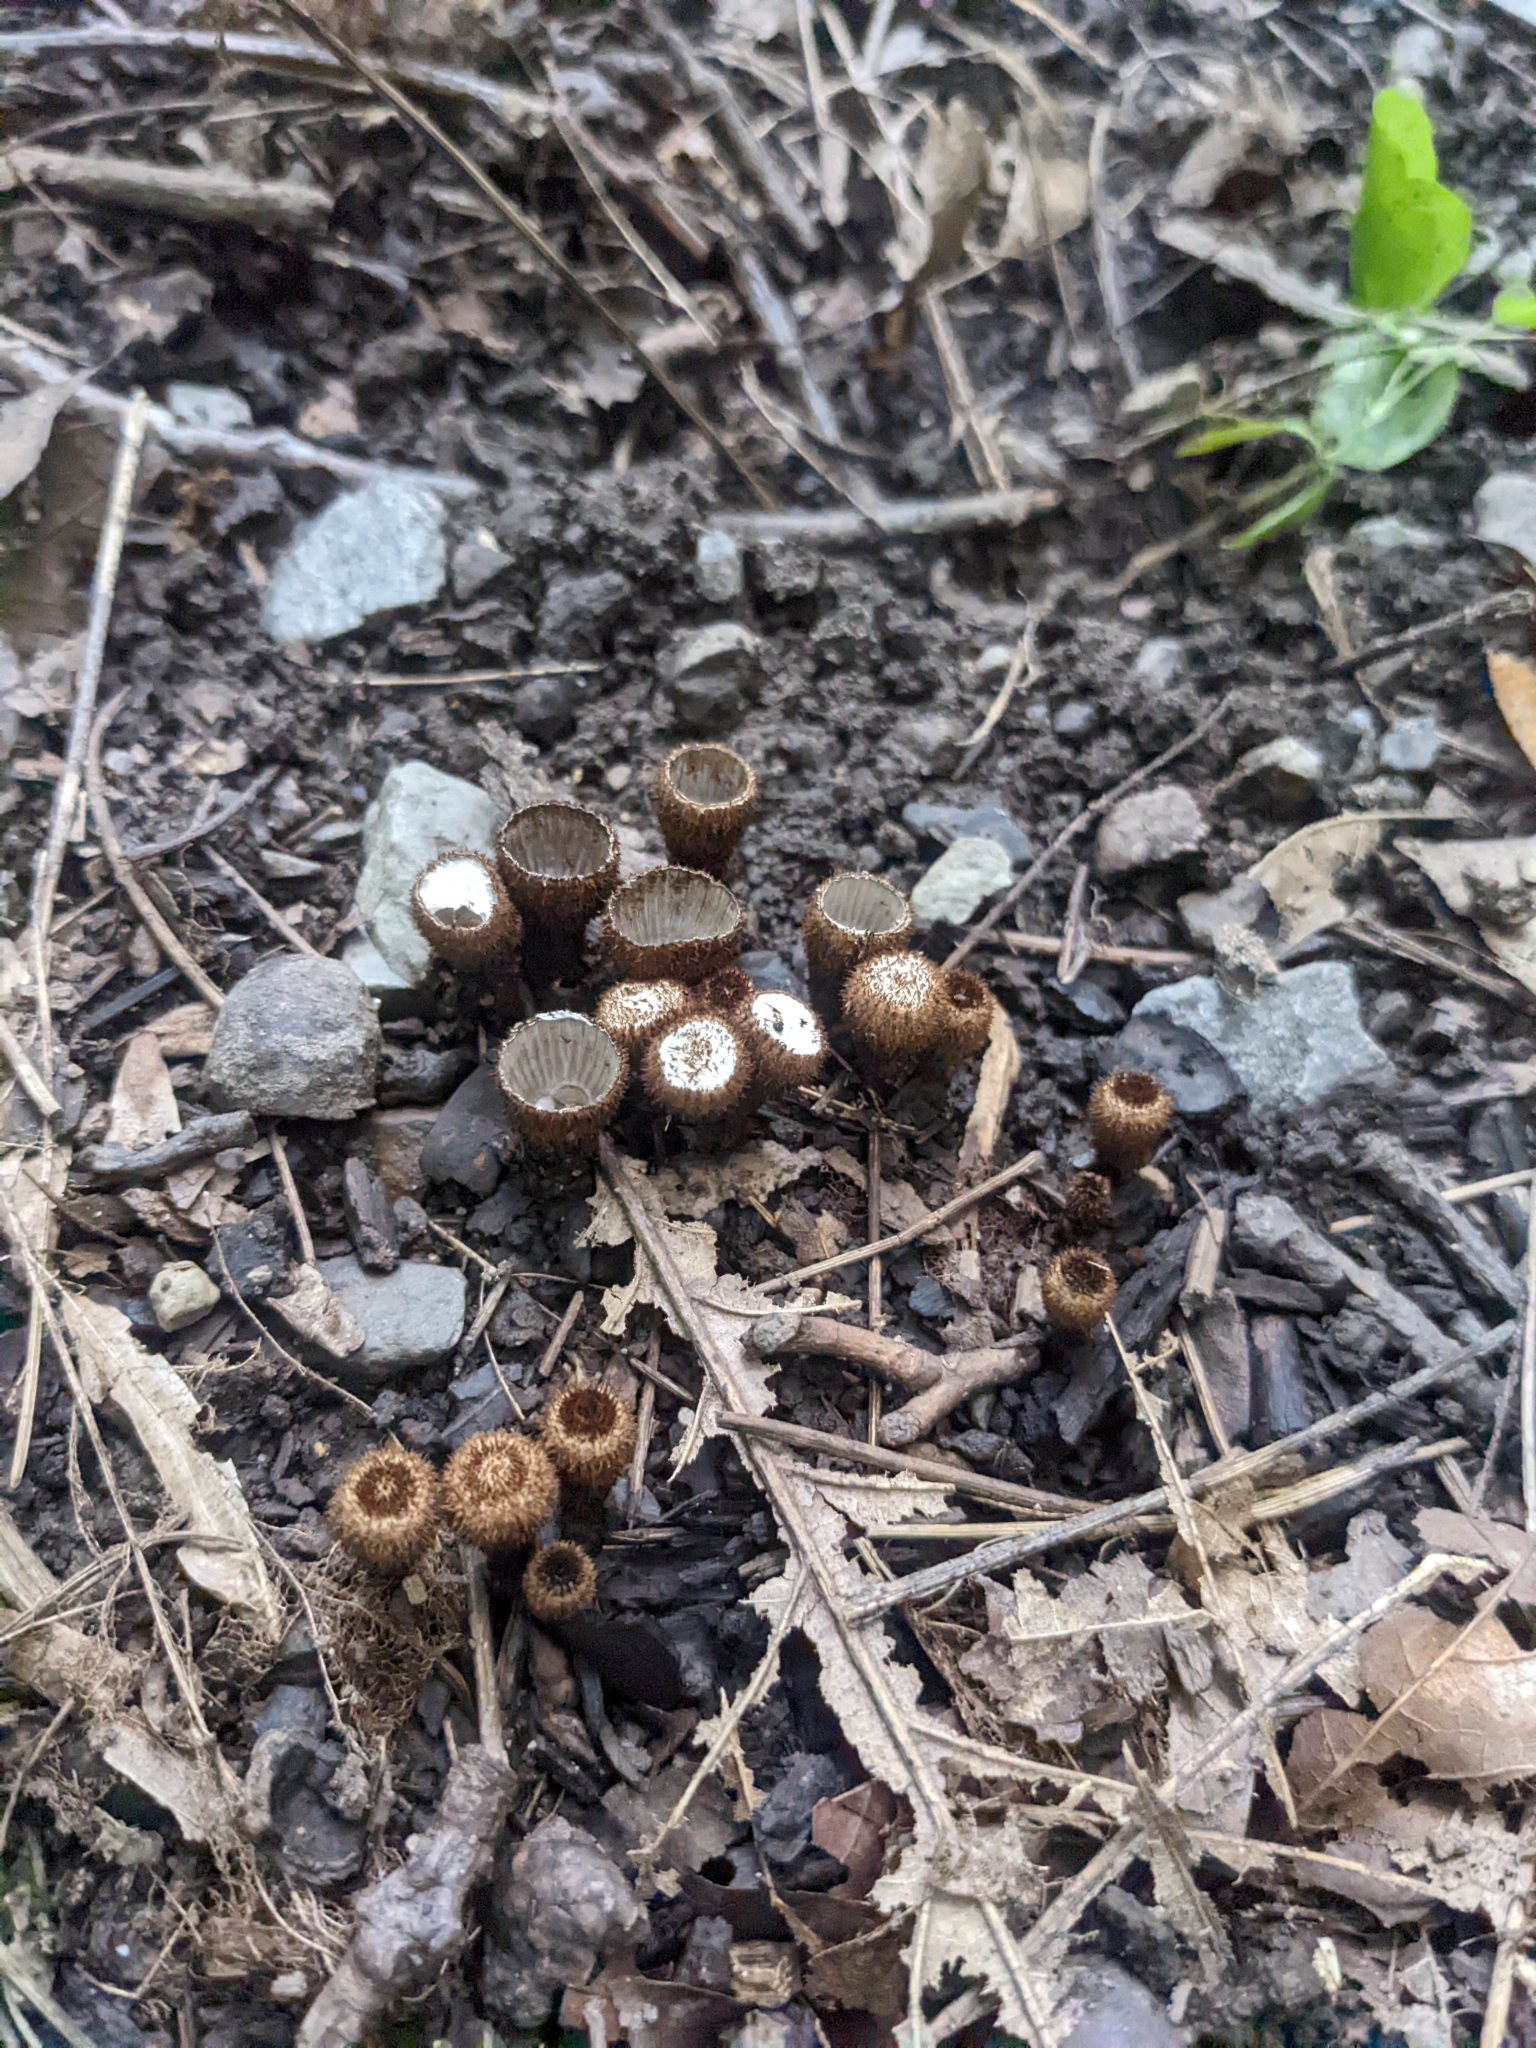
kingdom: Fungi
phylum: Basidiomycota
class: Agaricomycetes
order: Agaricales
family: Agaricaceae
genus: Cyathus
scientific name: Cyathus striatus
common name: Fluted bird's nest
